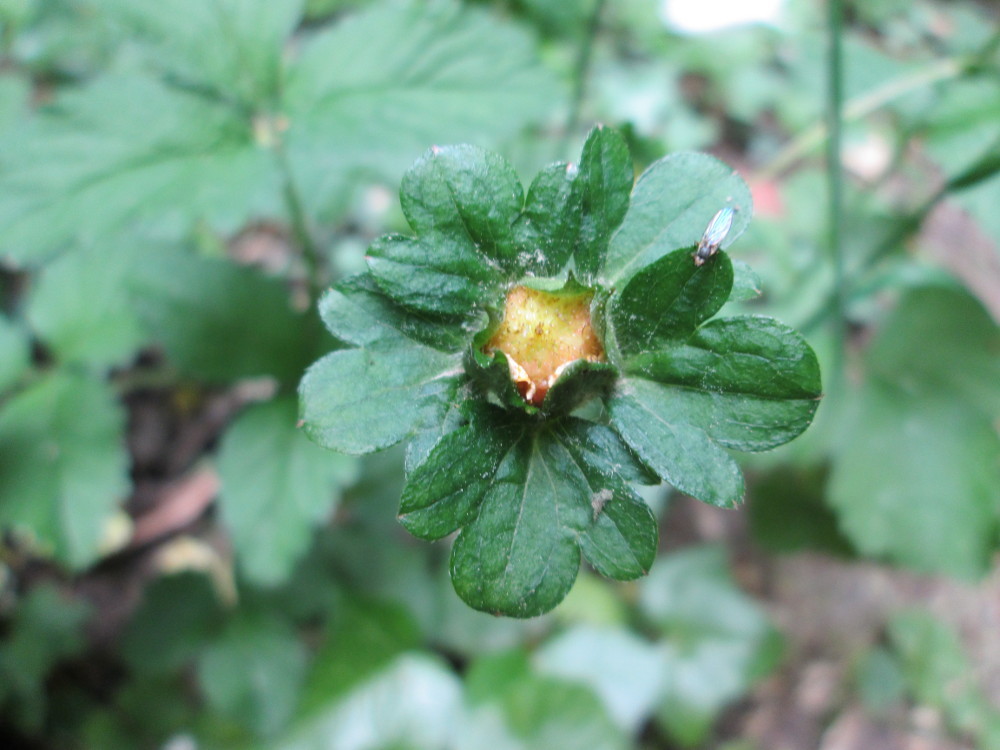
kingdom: Plantae
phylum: Tracheophyta
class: Magnoliopsida
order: Rosales
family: Rosaceae
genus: Potentilla
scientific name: Potentilla indica
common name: Yellow-flowered strawberry
